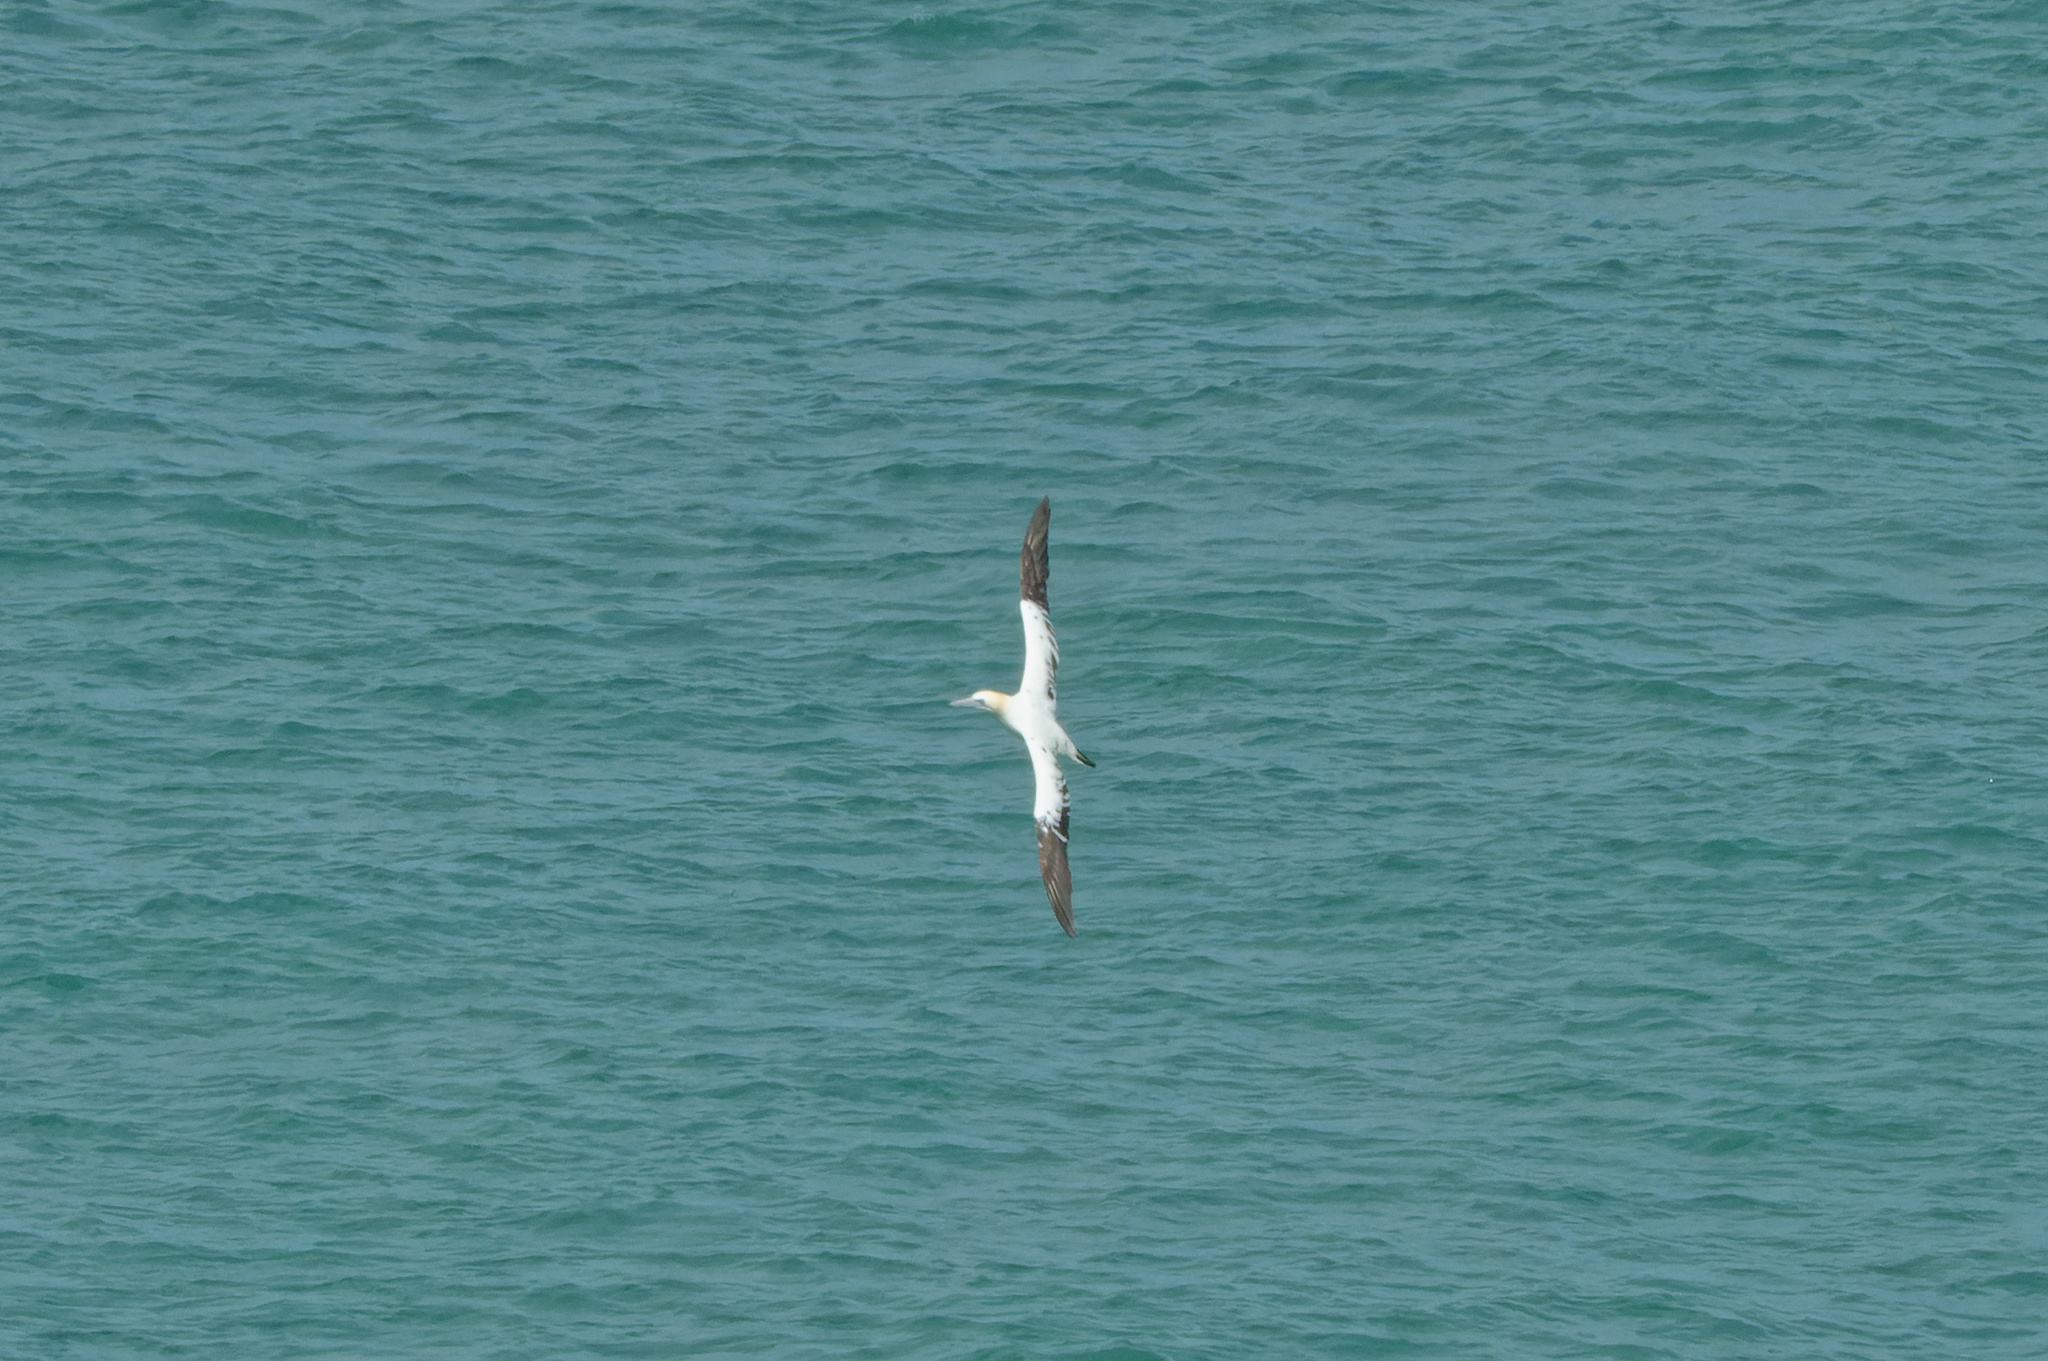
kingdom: Animalia
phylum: Chordata
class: Aves
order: Suliformes
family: Sulidae
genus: Morus
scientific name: Morus bassanus
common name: Northern gannet
